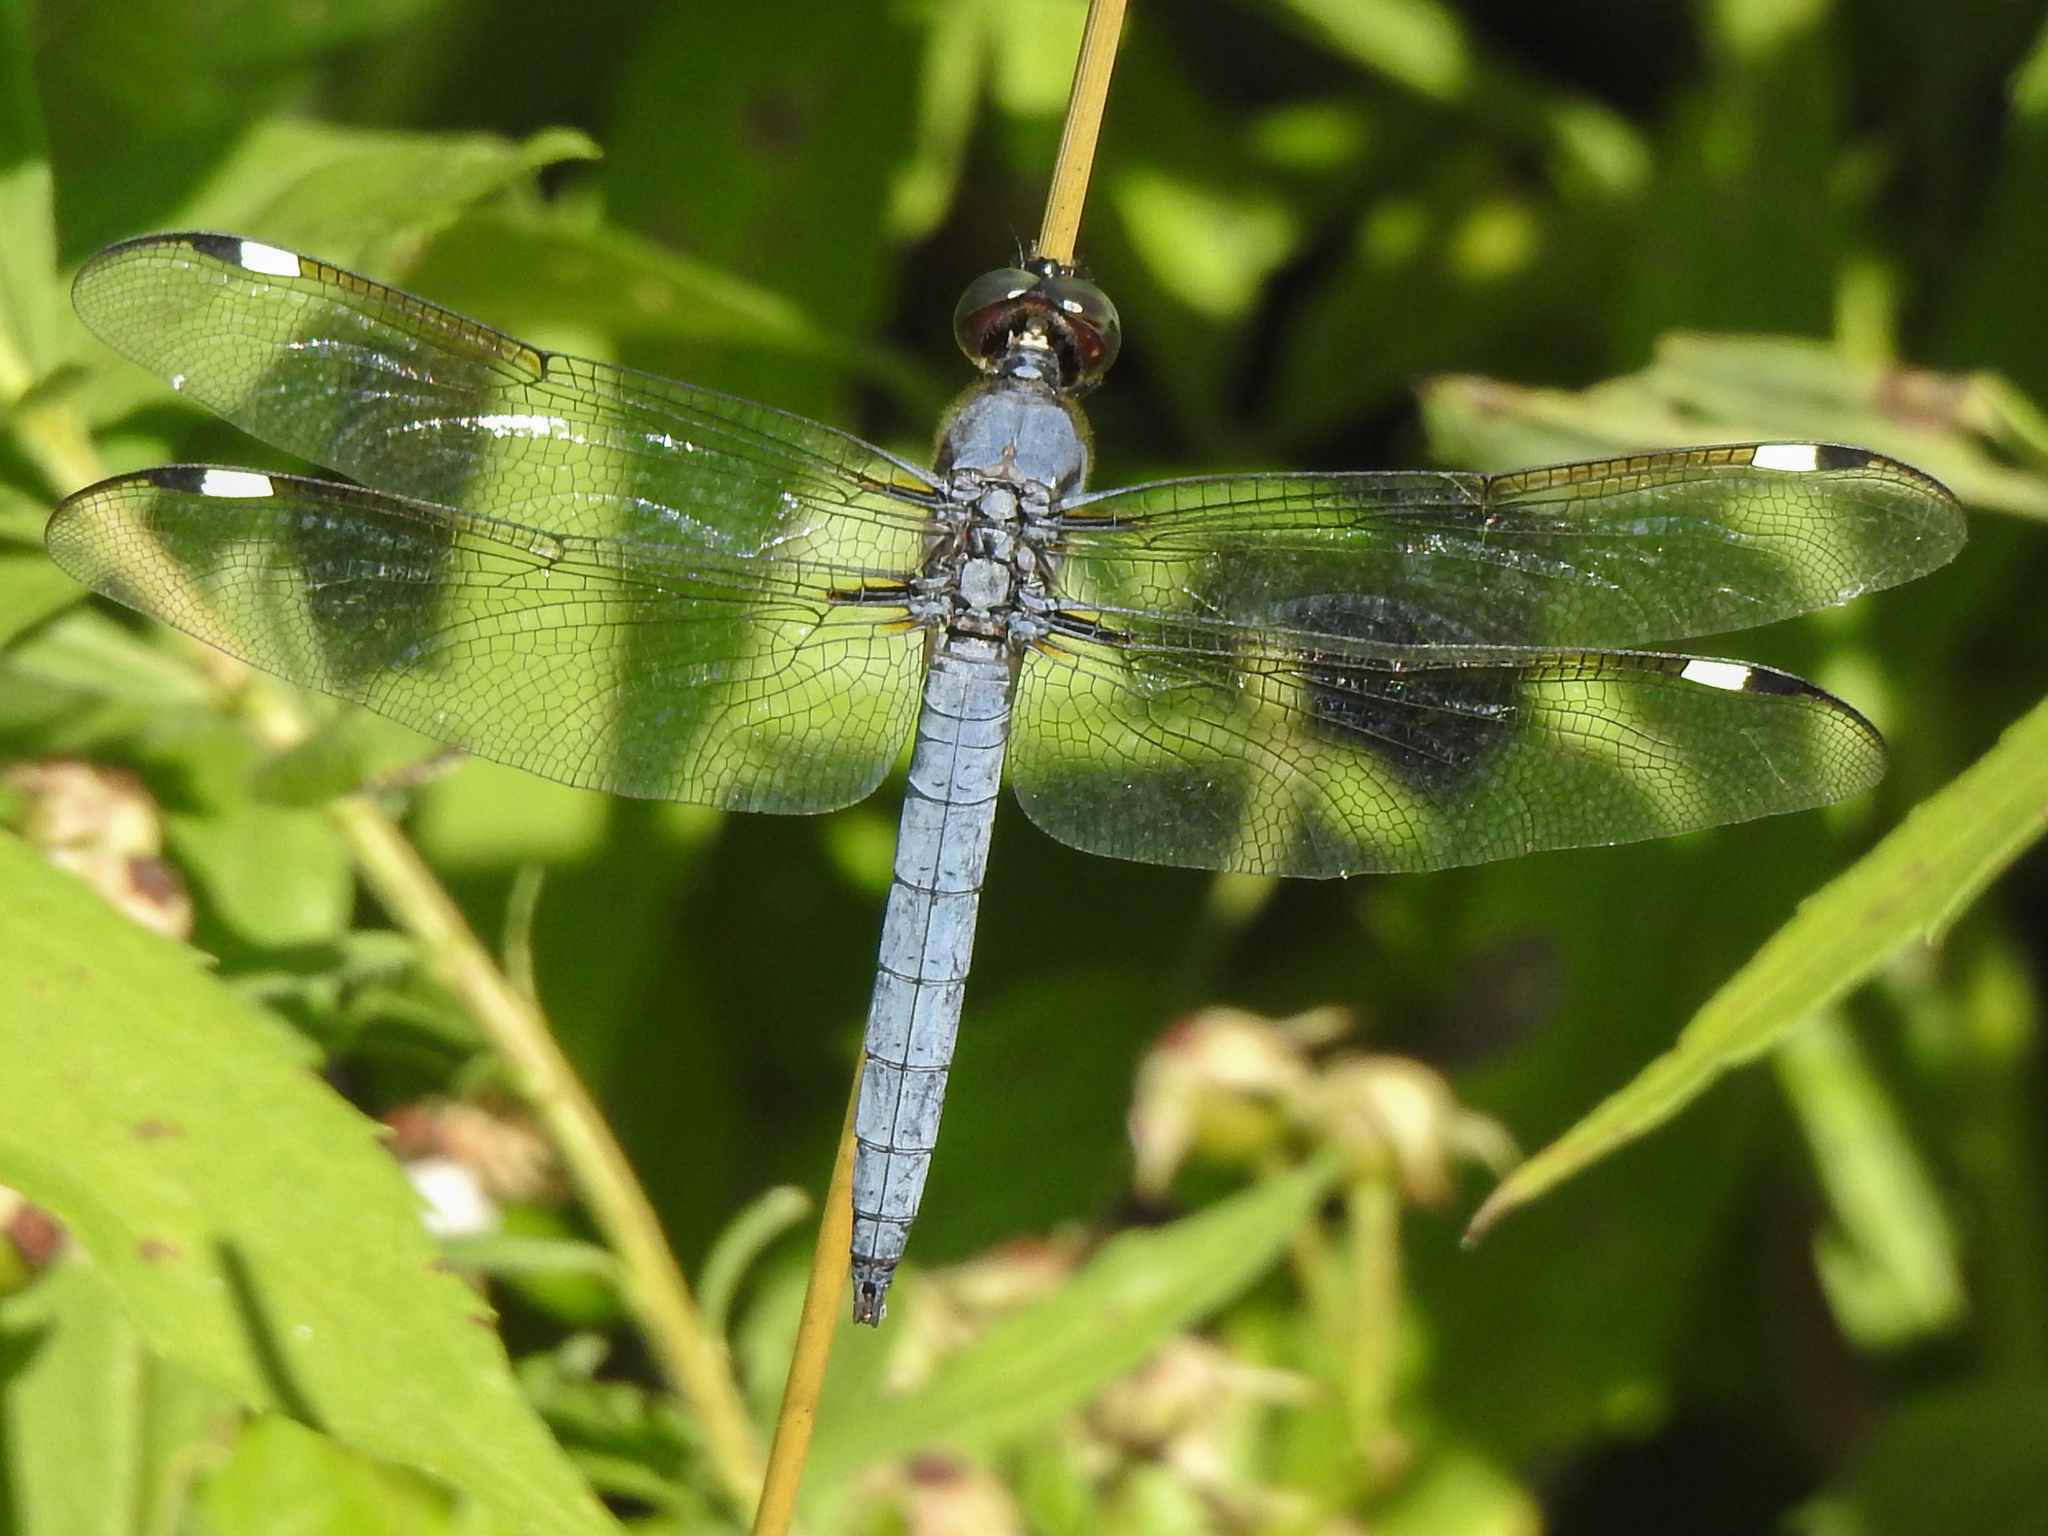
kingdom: Animalia
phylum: Arthropoda
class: Insecta
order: Odonata
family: Libellulidae
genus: Libellula
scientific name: Libellula cyanea
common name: Spangled skimmer
